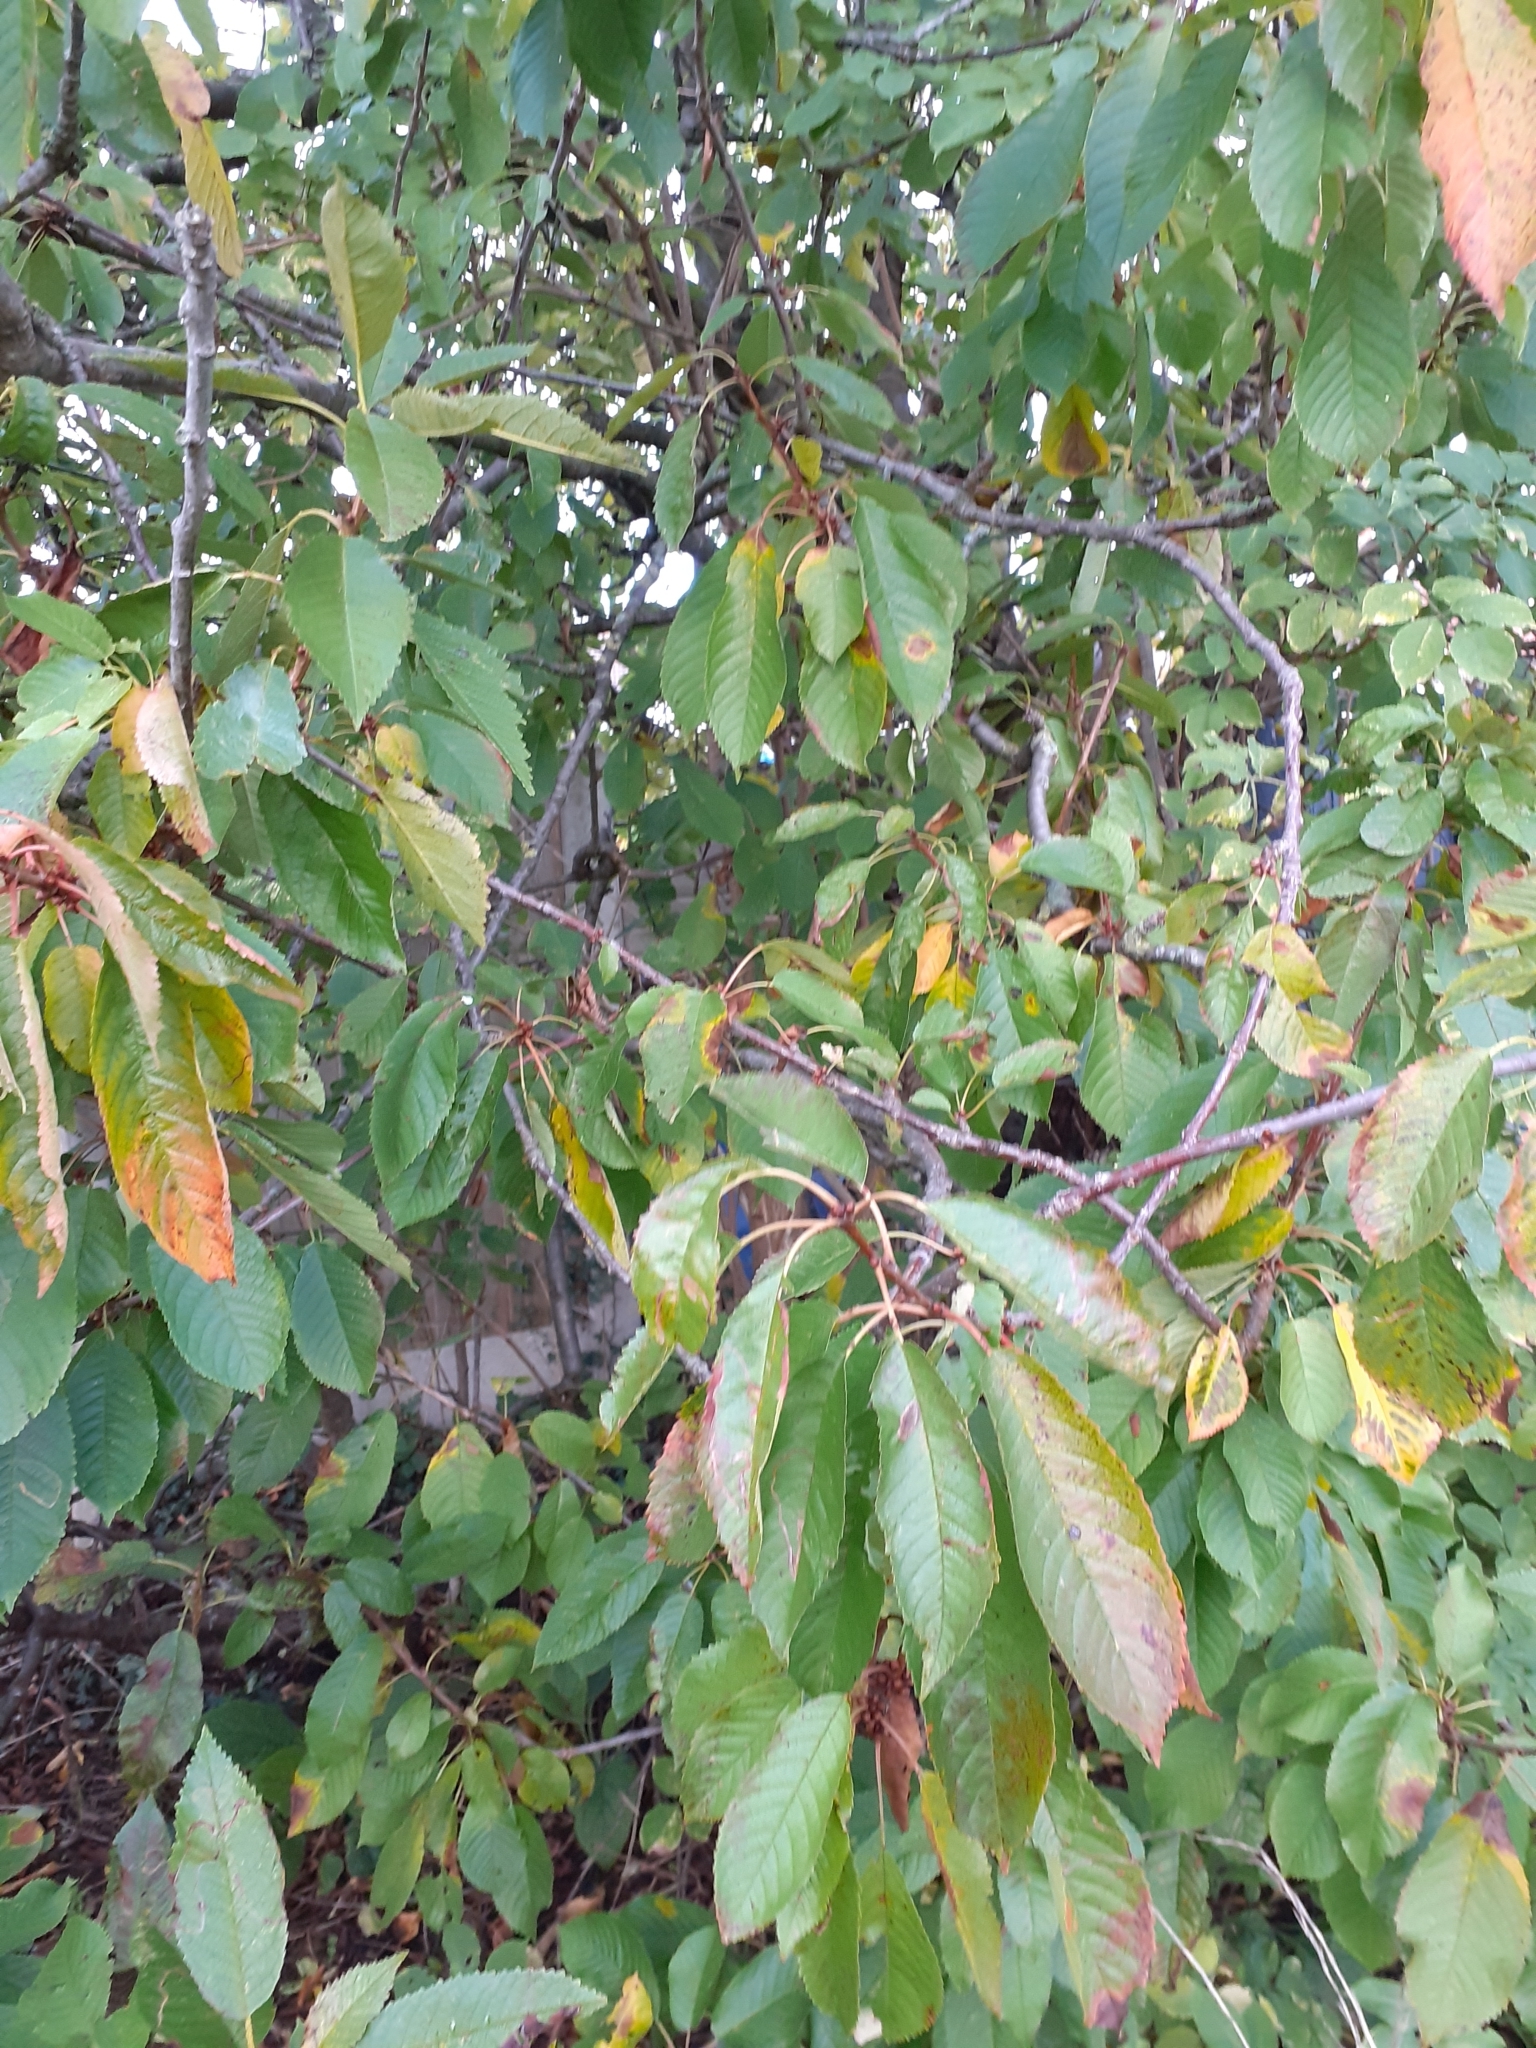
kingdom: Plantae
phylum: Tracheophyta
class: Magnoliopsida
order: Rosales
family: Rosaceae
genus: Prunus
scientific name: Prunus avium
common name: Sweet cherry
